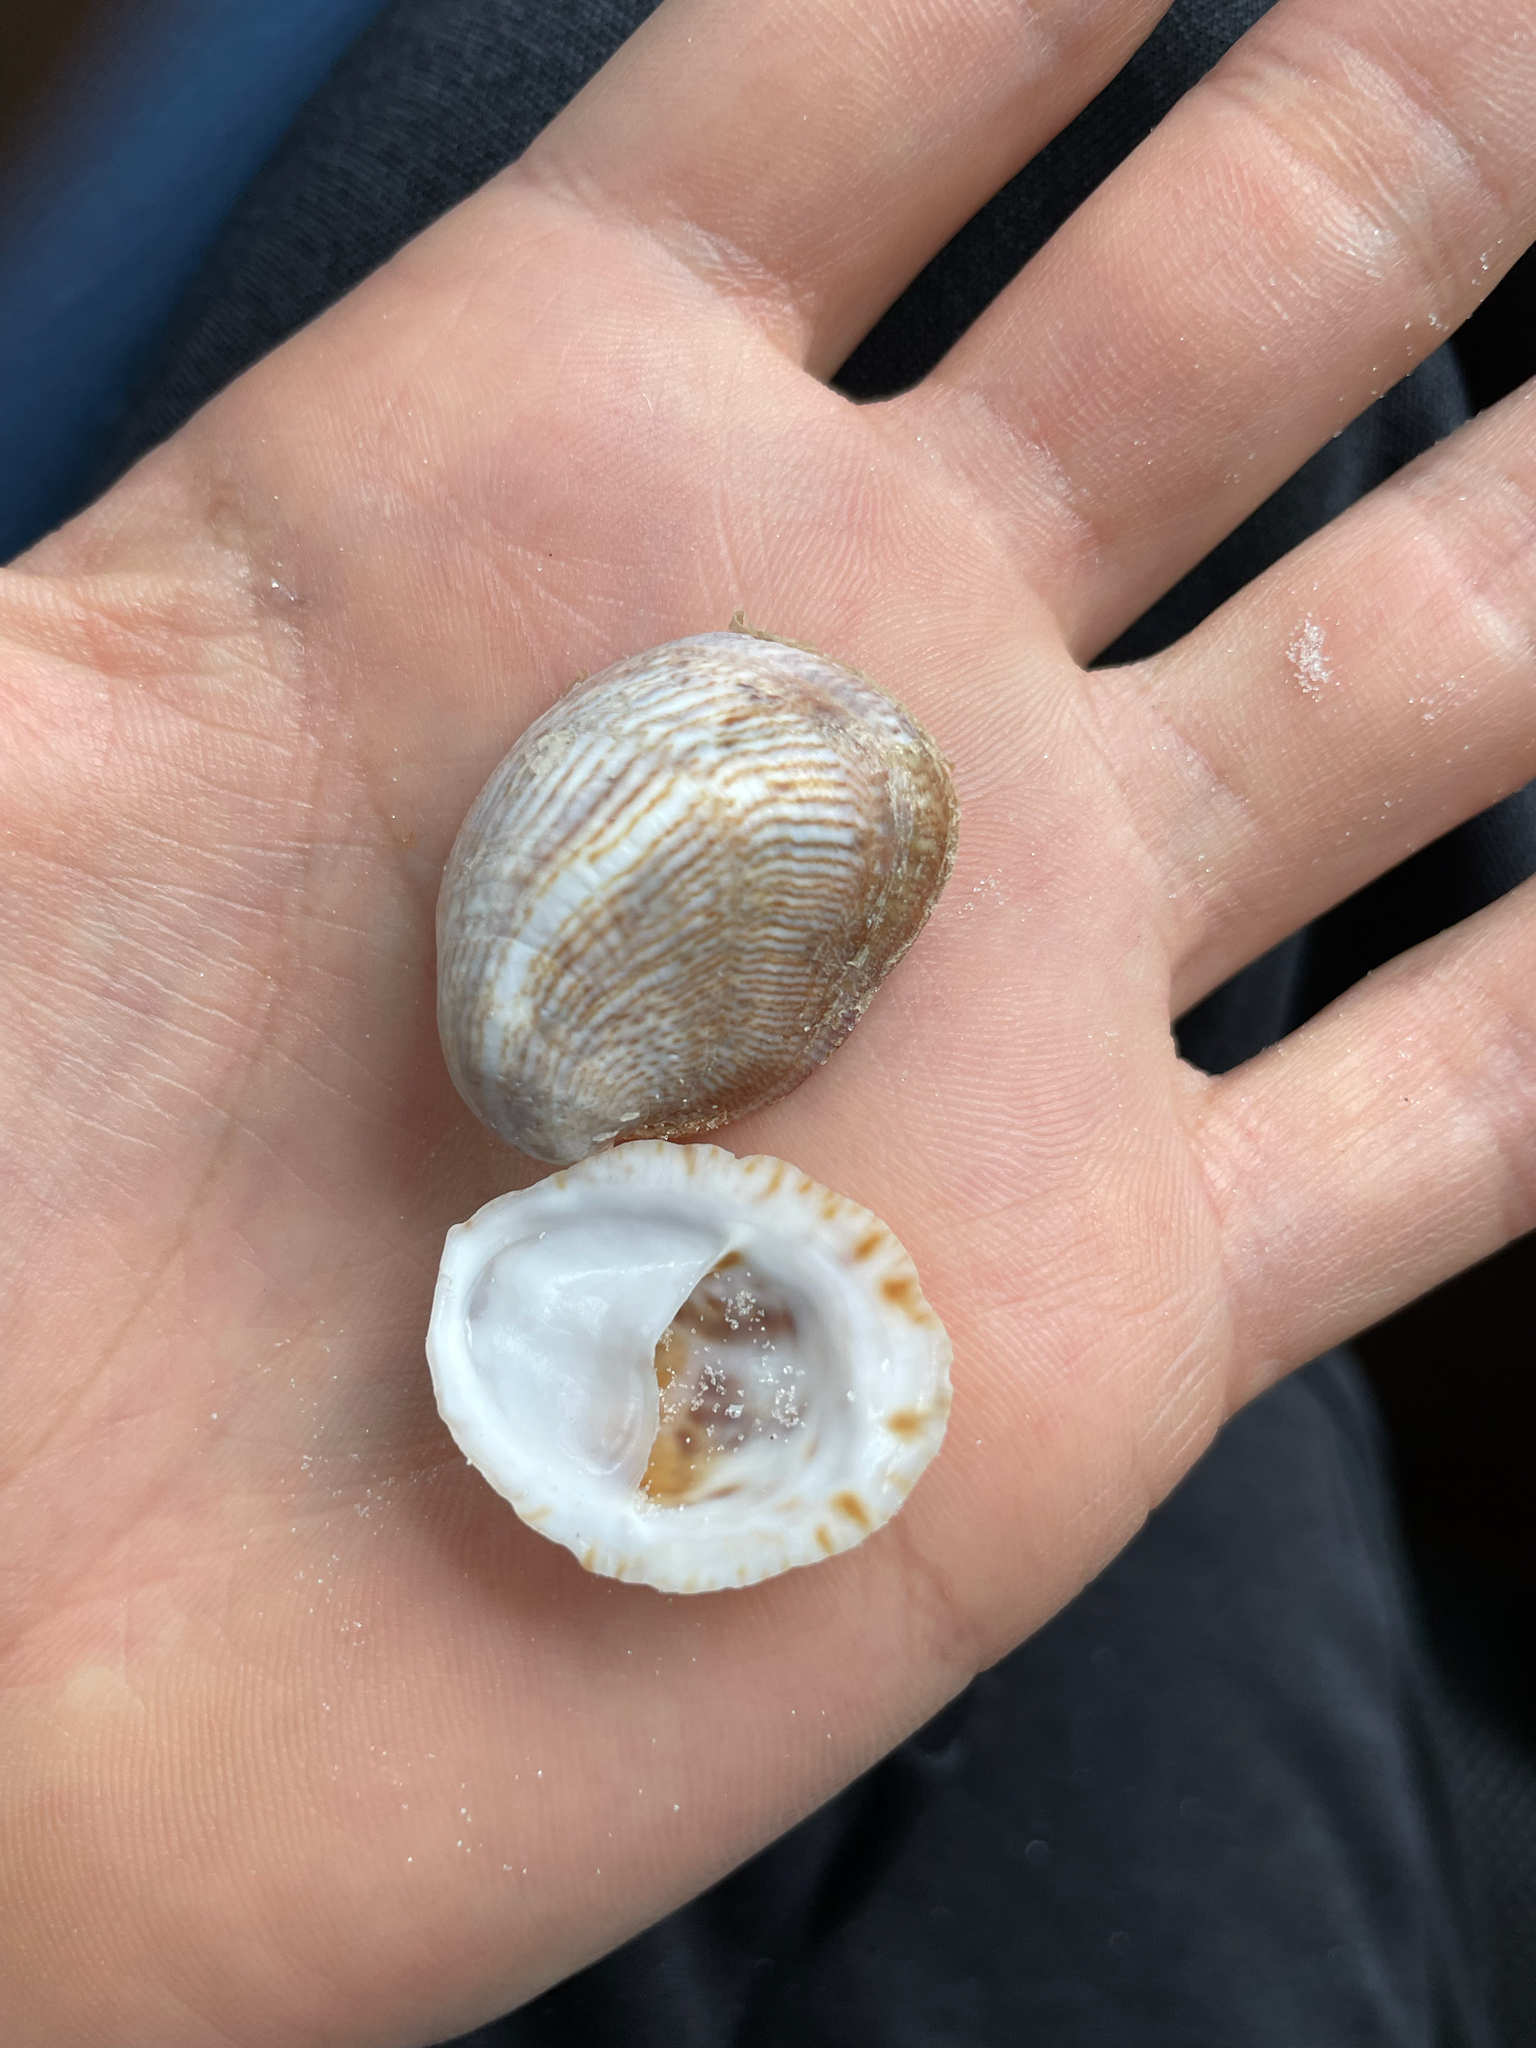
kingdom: Animalia
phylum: Mollusca
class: Gastropoda
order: Littorinimorpha
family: Calyptraeidae
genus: Crepidula
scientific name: Crepidula fornicata
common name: Slipper limpet
